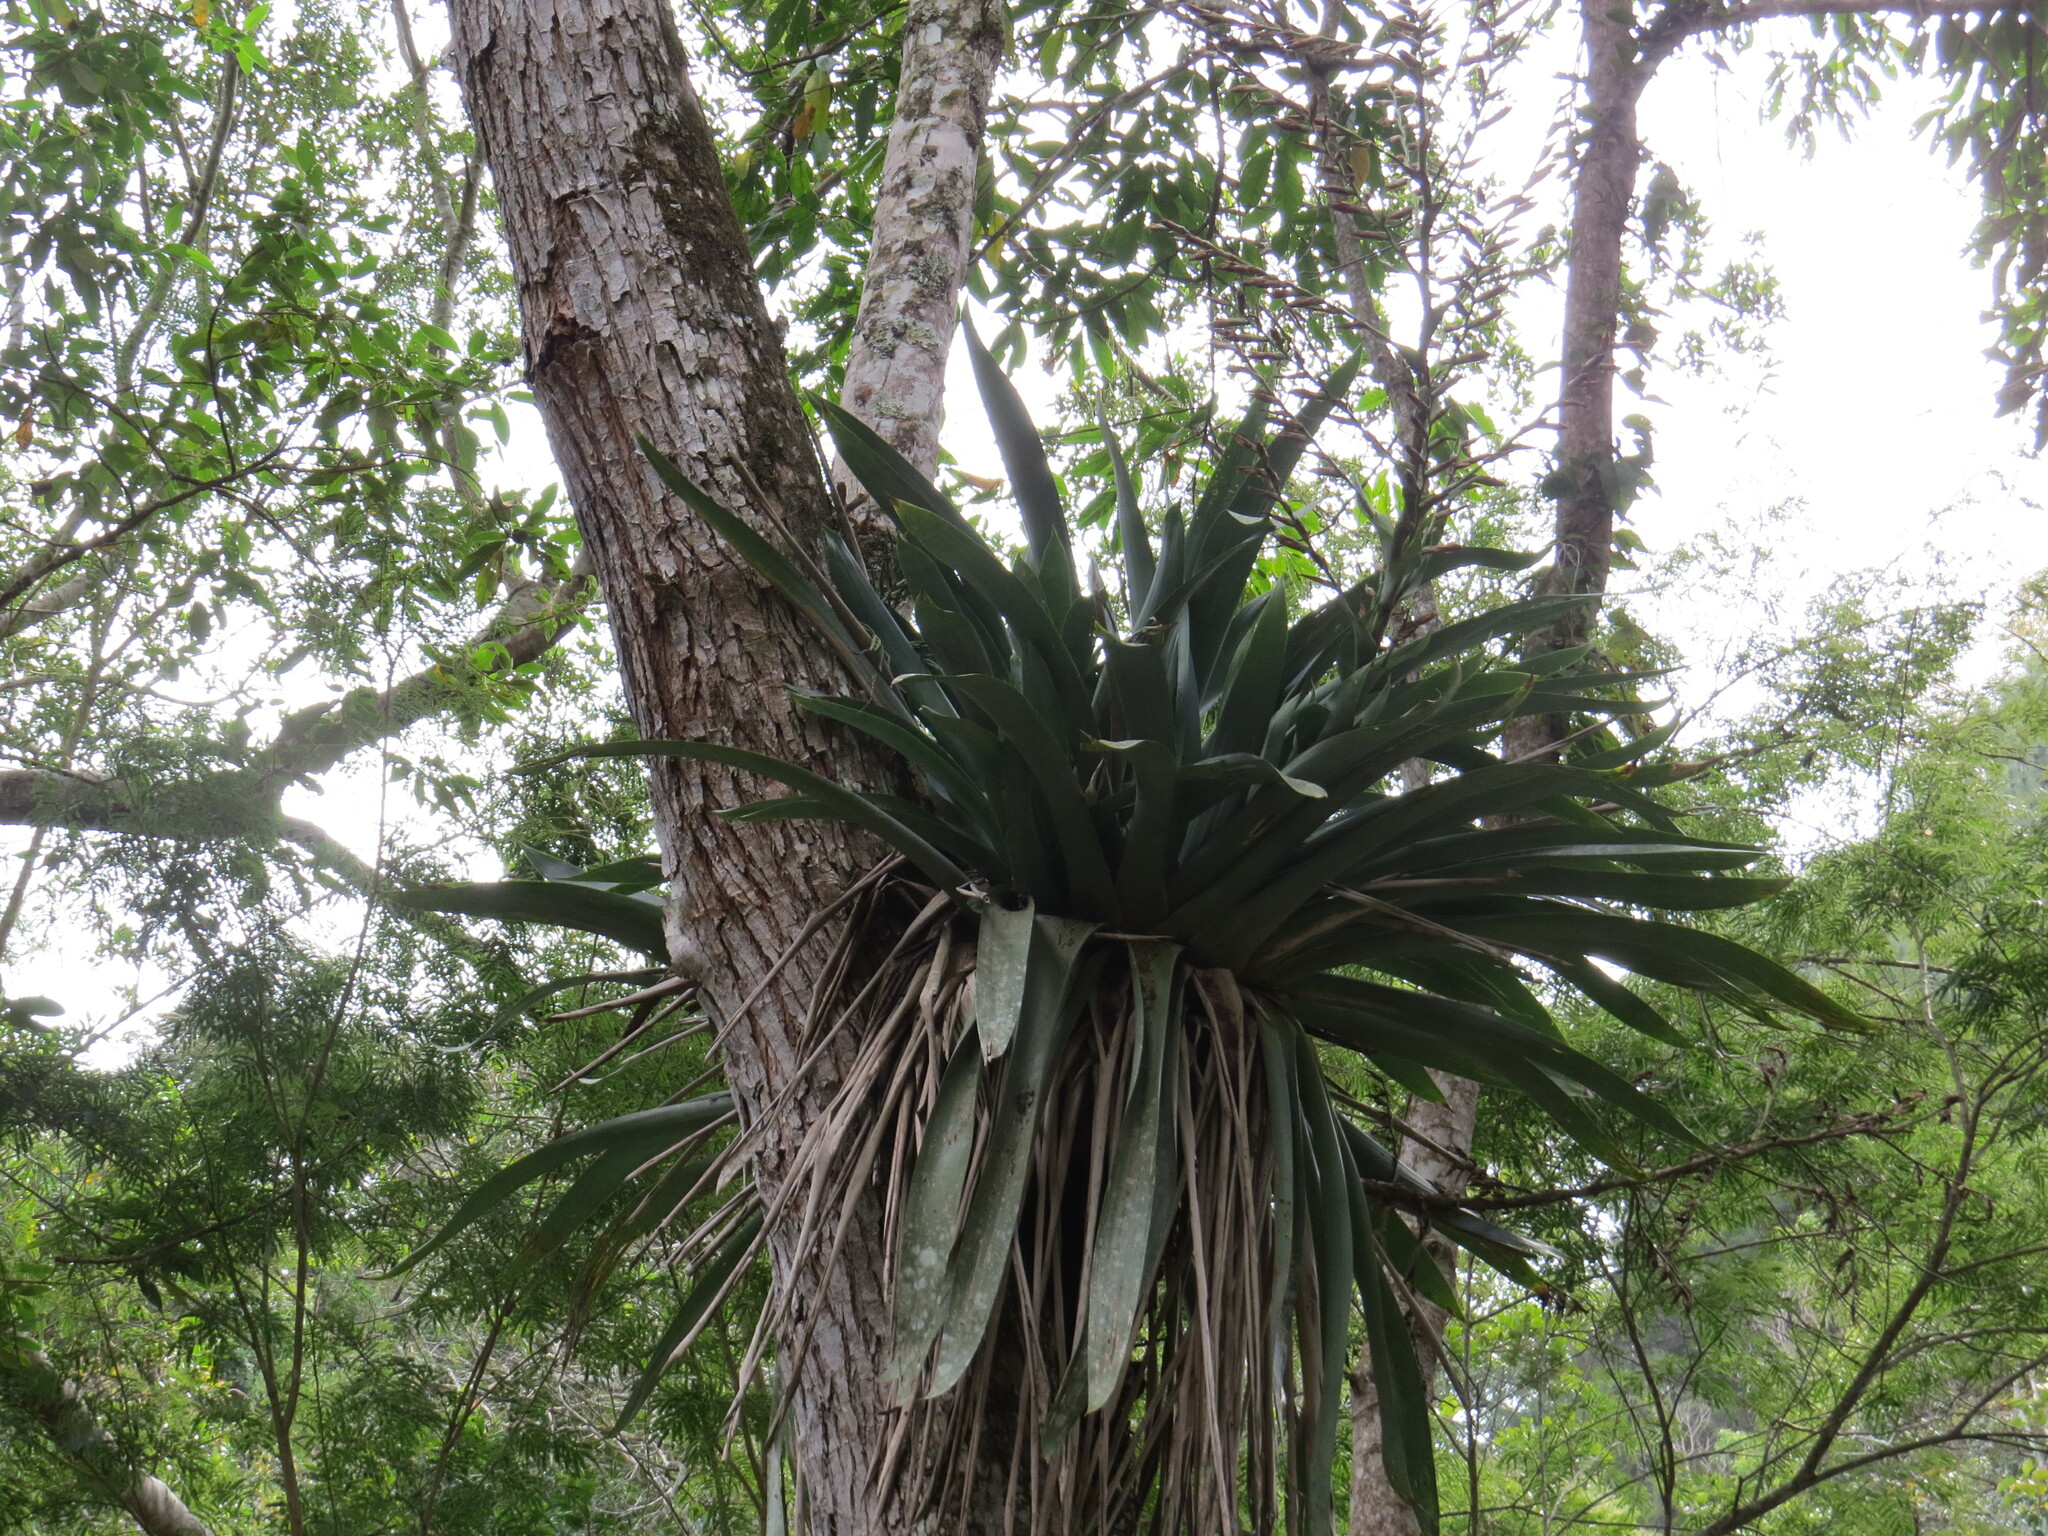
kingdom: Plantae
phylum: Tracheophyta
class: Liliopsida
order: Poales
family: Bromeliaceae
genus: Vriesea
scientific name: Vriesea gigantea
